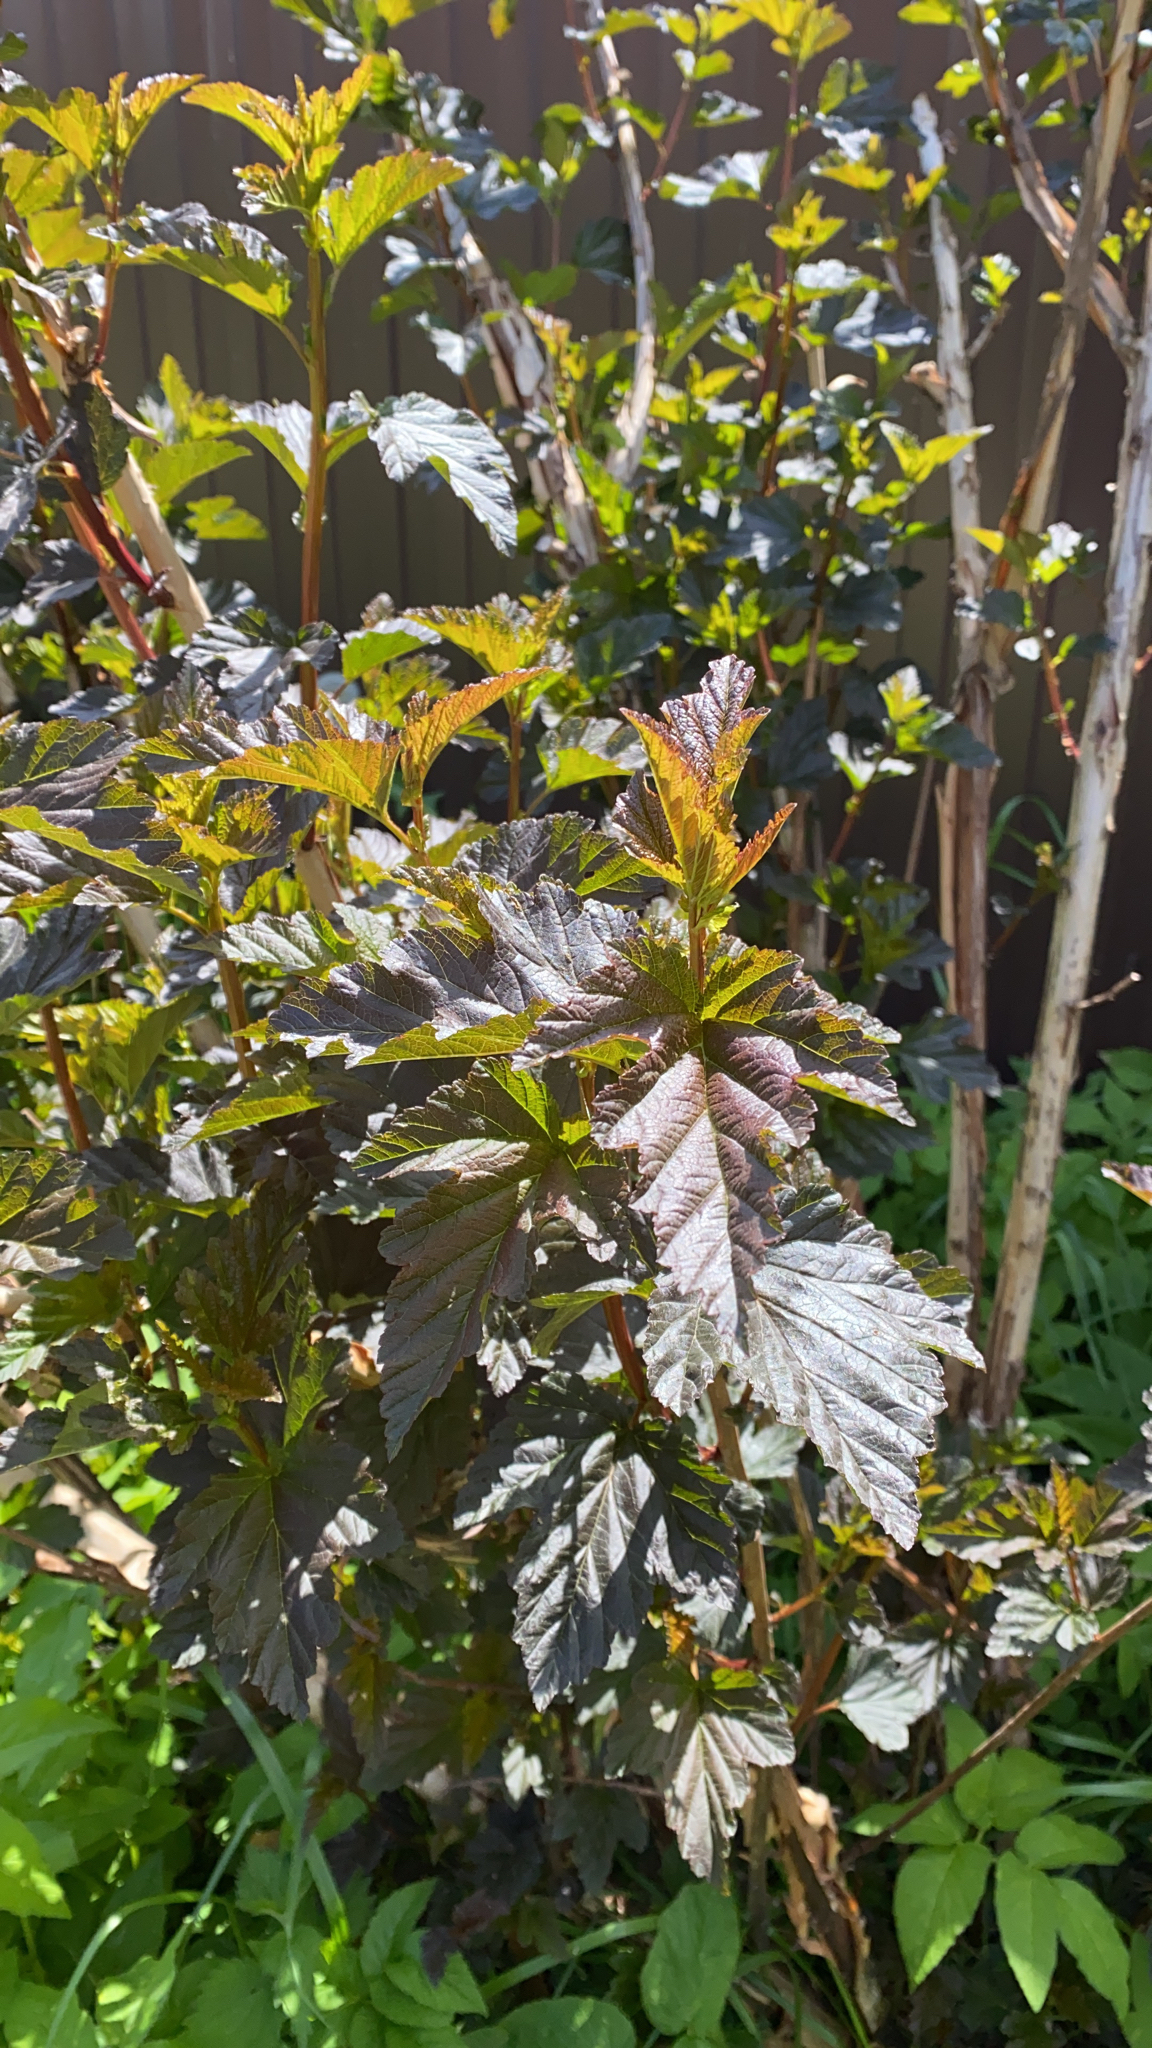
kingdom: Plantae
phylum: Tracheophyta
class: Magnoliopsida
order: Rosales
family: Rosaceae
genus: Physocarpus
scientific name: Physocarpus opulifolius
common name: Ninebark
